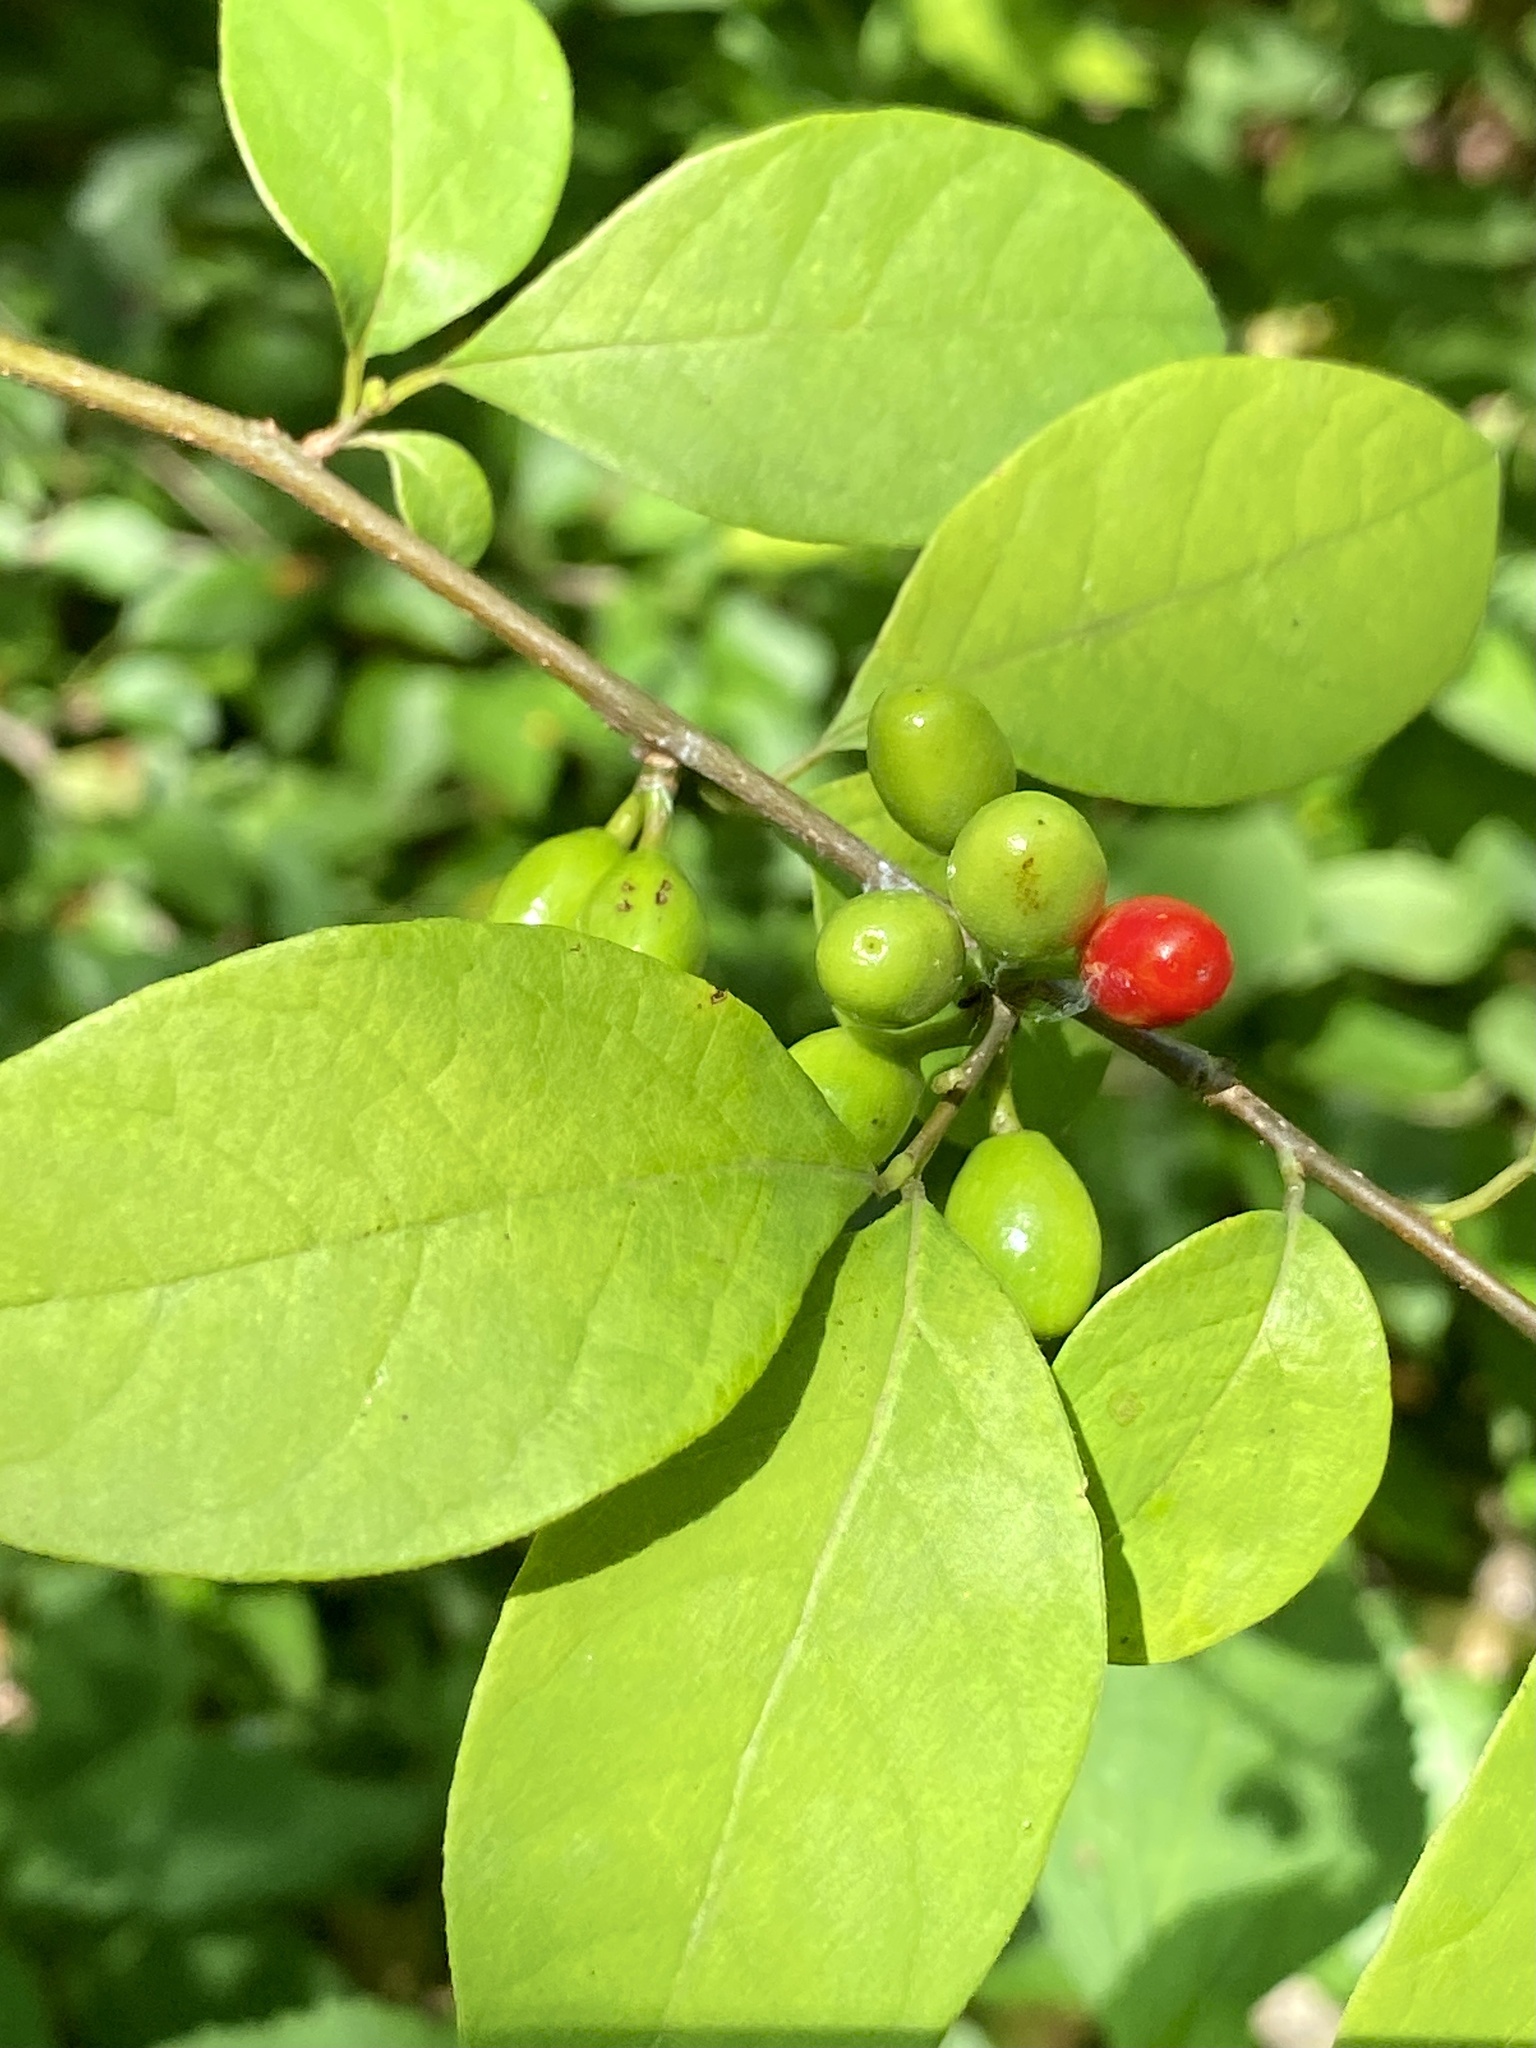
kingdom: Plantae
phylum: Tracheophyta
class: Magnoliopsida
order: Laurales
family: Lauraceae
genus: Lindera
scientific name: Lindera benzoin
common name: Spicebush
